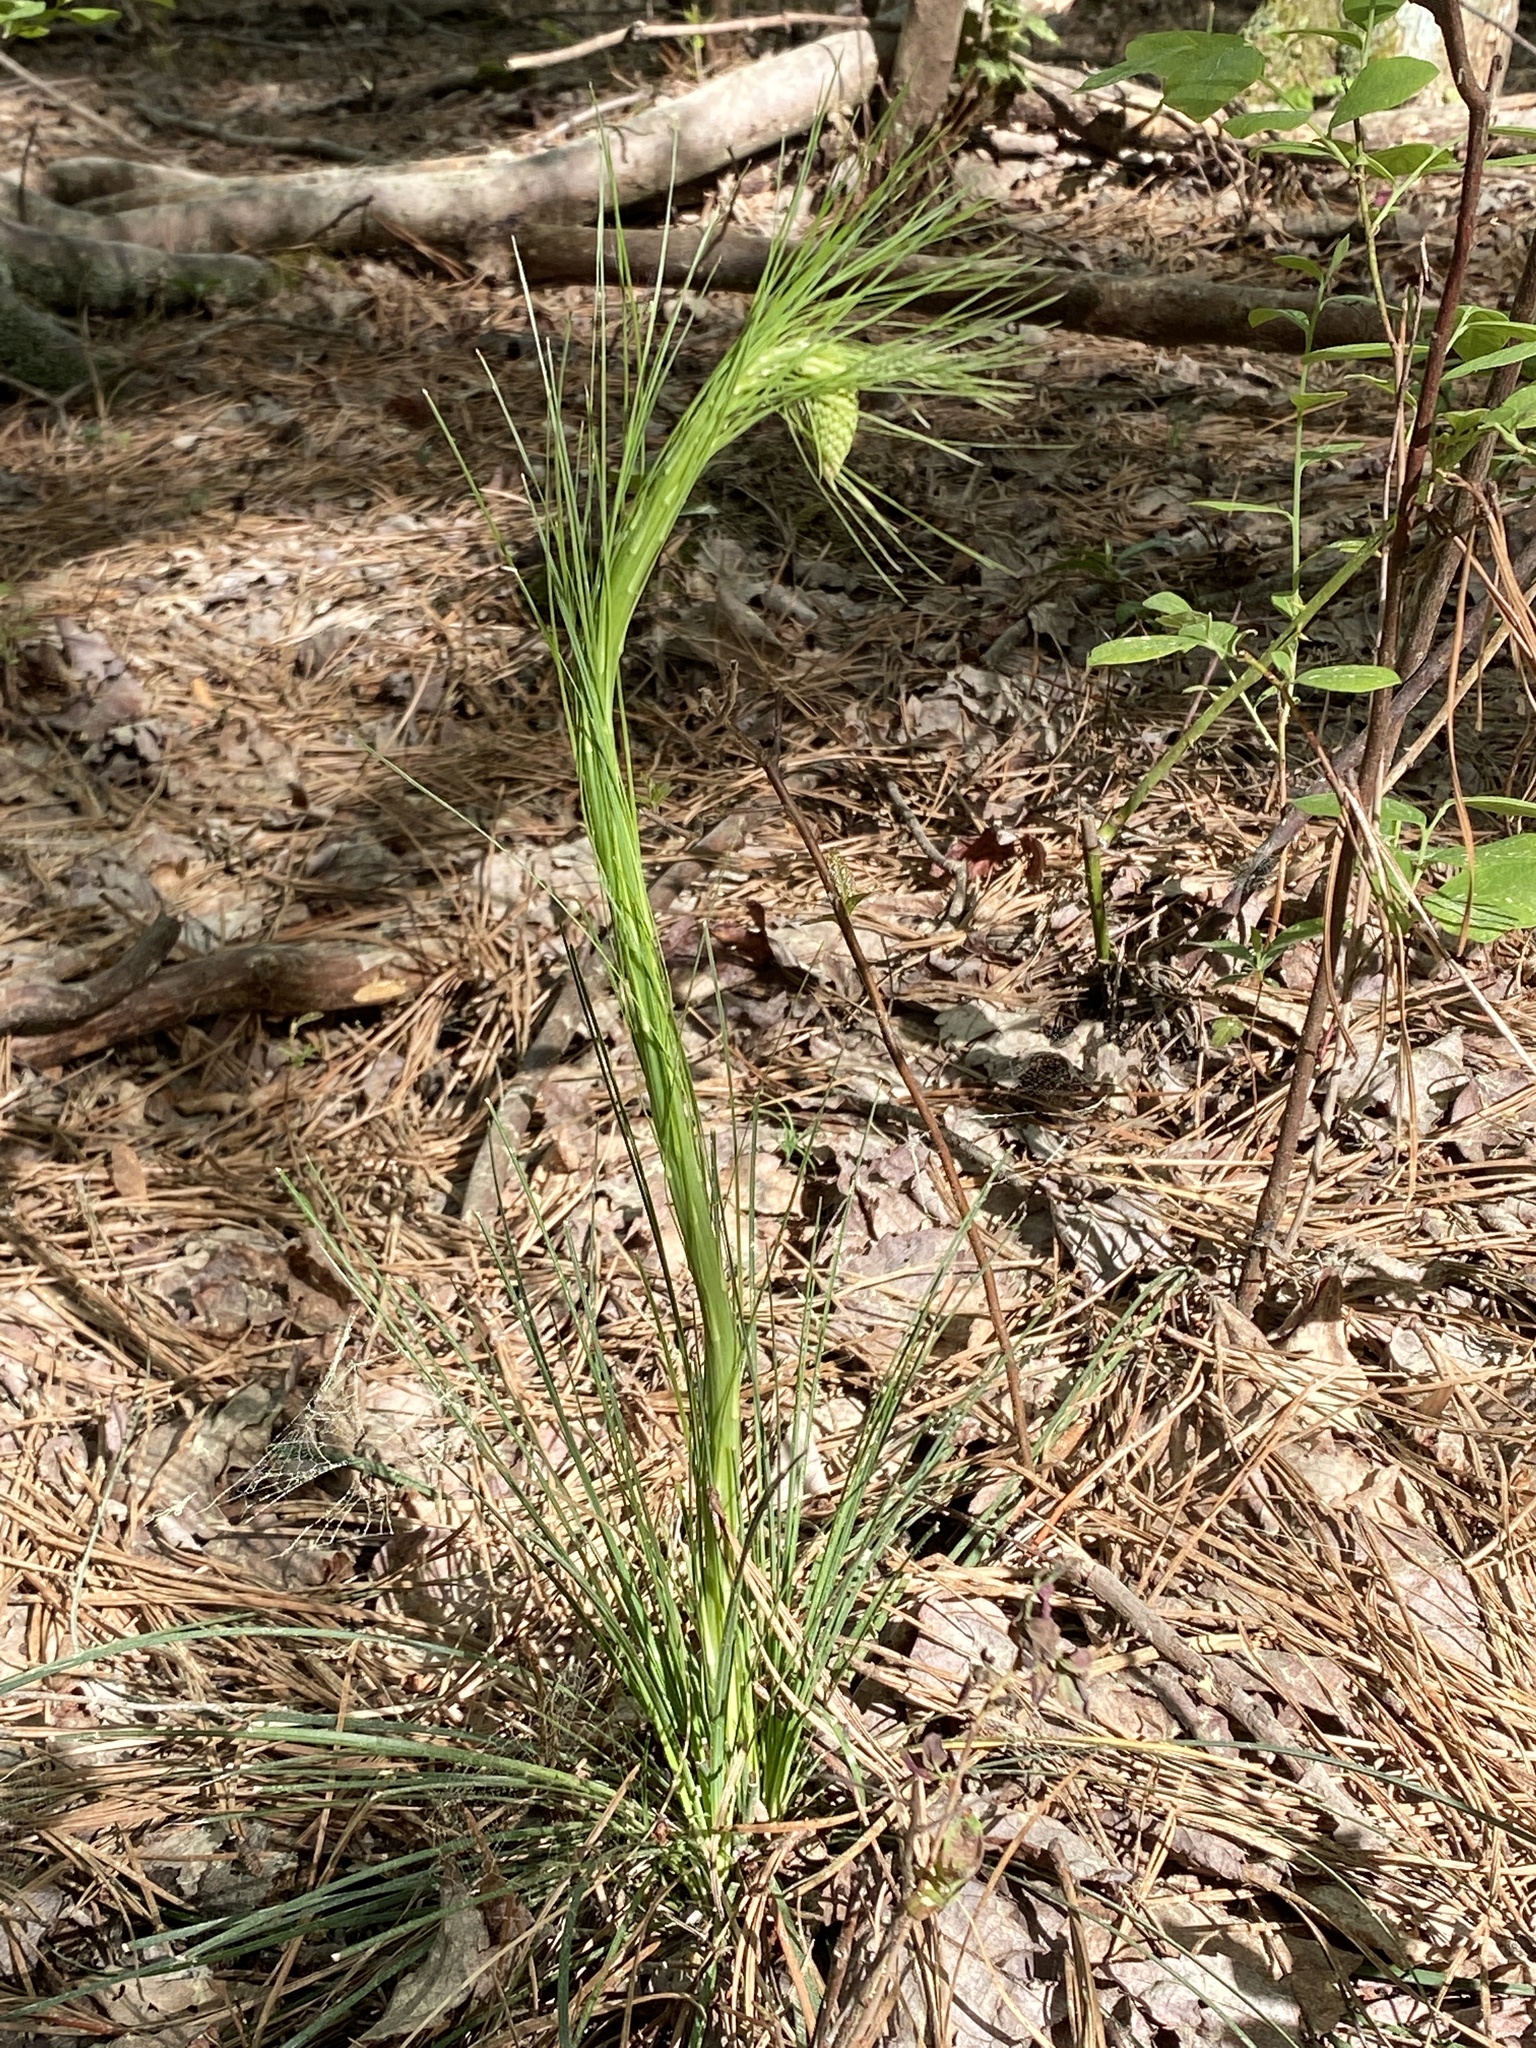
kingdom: Plantae
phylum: Tracheophyta
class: Liliopsida
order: Liliales
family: Melanthiaceae
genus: Xerophyllum
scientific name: Xerophyllum asphodeloides
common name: Mountain-asphodel
